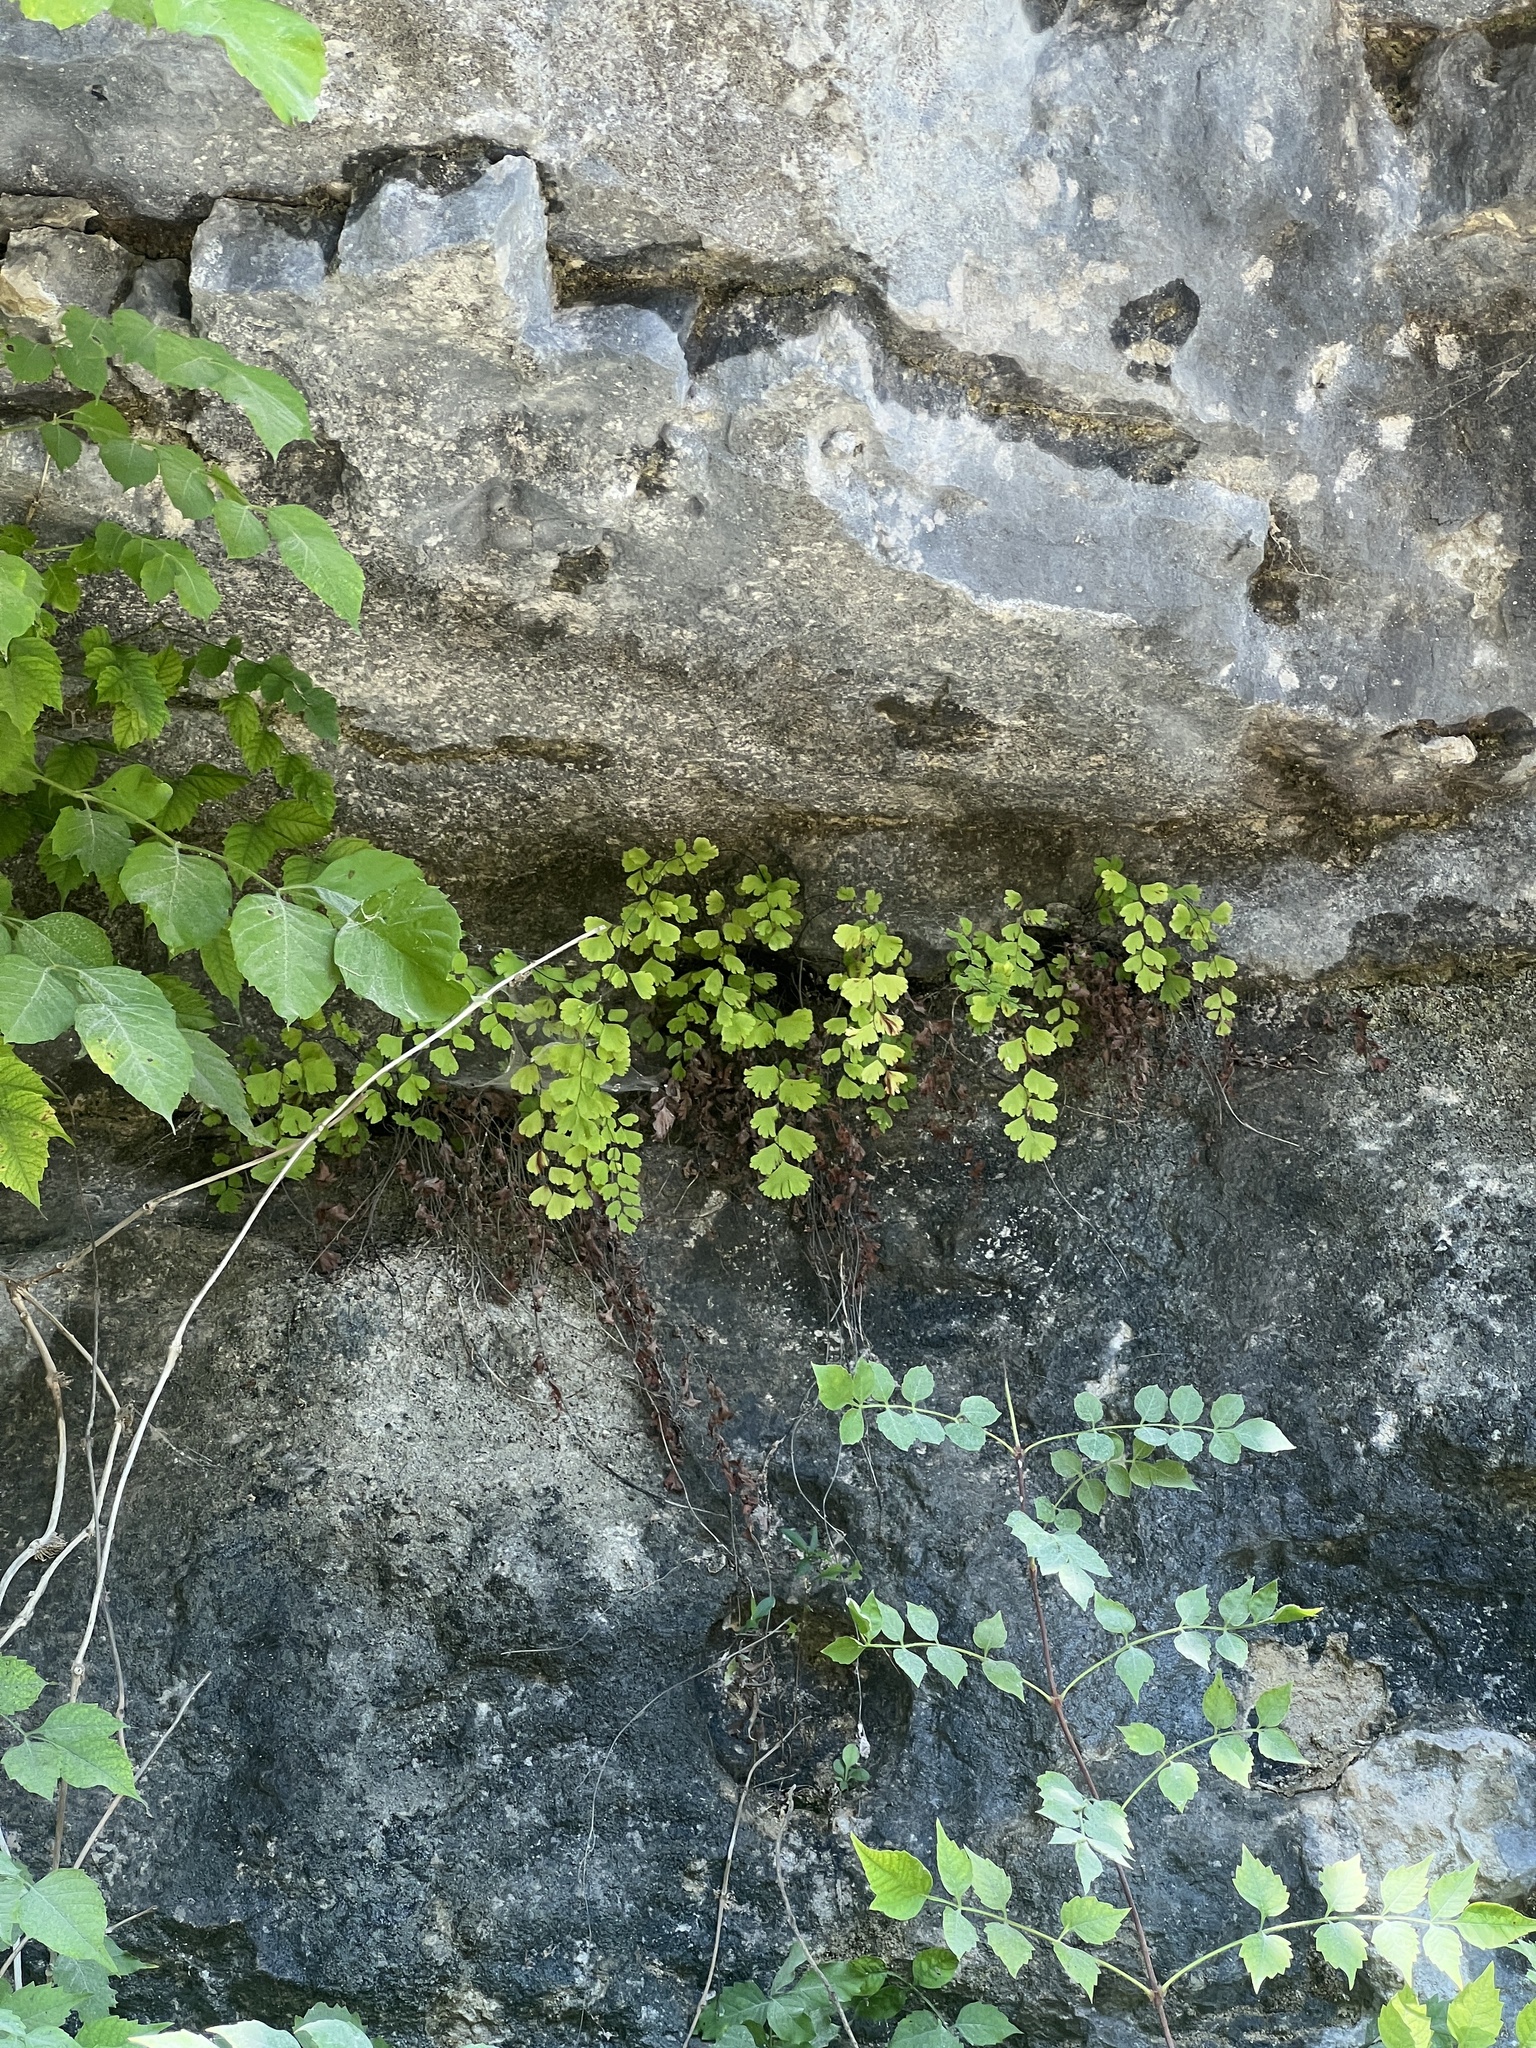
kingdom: Plantae
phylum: Tracheophyta
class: Polypodiopsida
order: Polypodiales
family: Pteridaceae
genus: Adiantum
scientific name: Adiantum capillus-veneris
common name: Maidenhair fern
